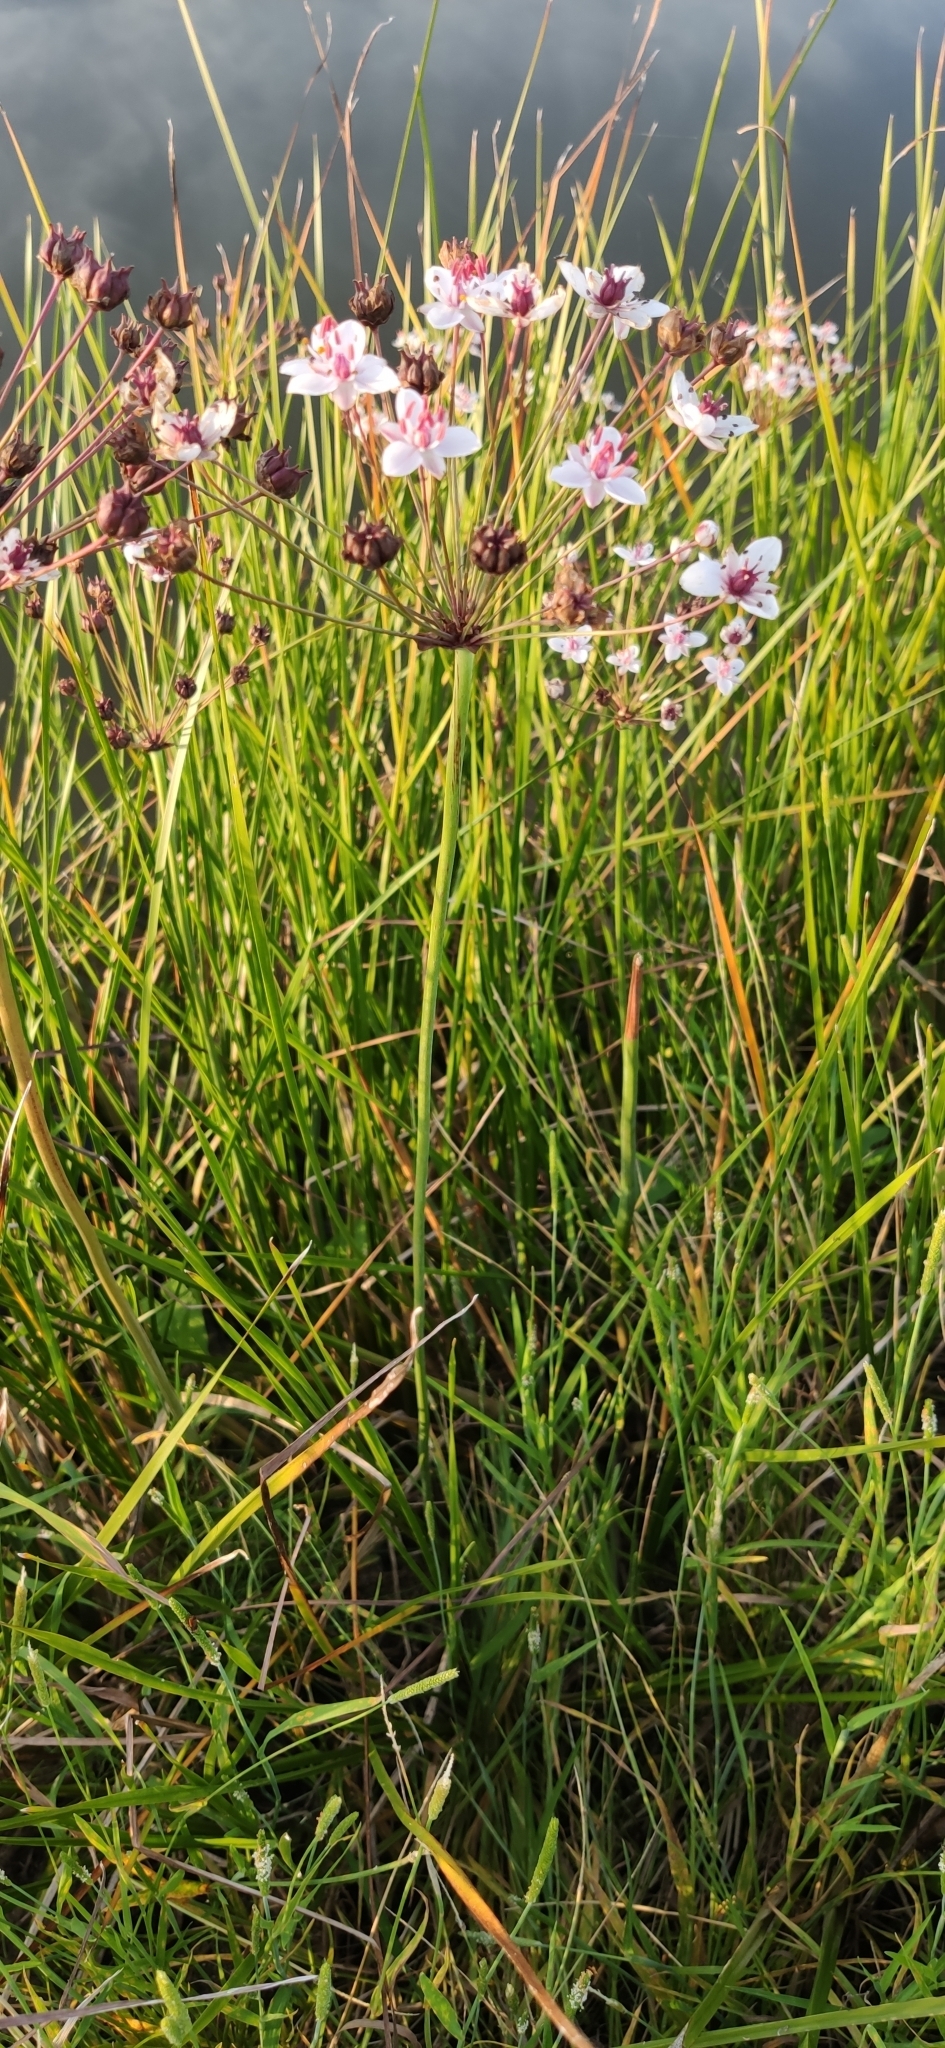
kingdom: Plantae
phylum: Tracheophyta
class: Liliopsida
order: Alismatales
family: Butomaceae
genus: Butomus
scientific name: Butomus umbellatus
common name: Flowering-rush
